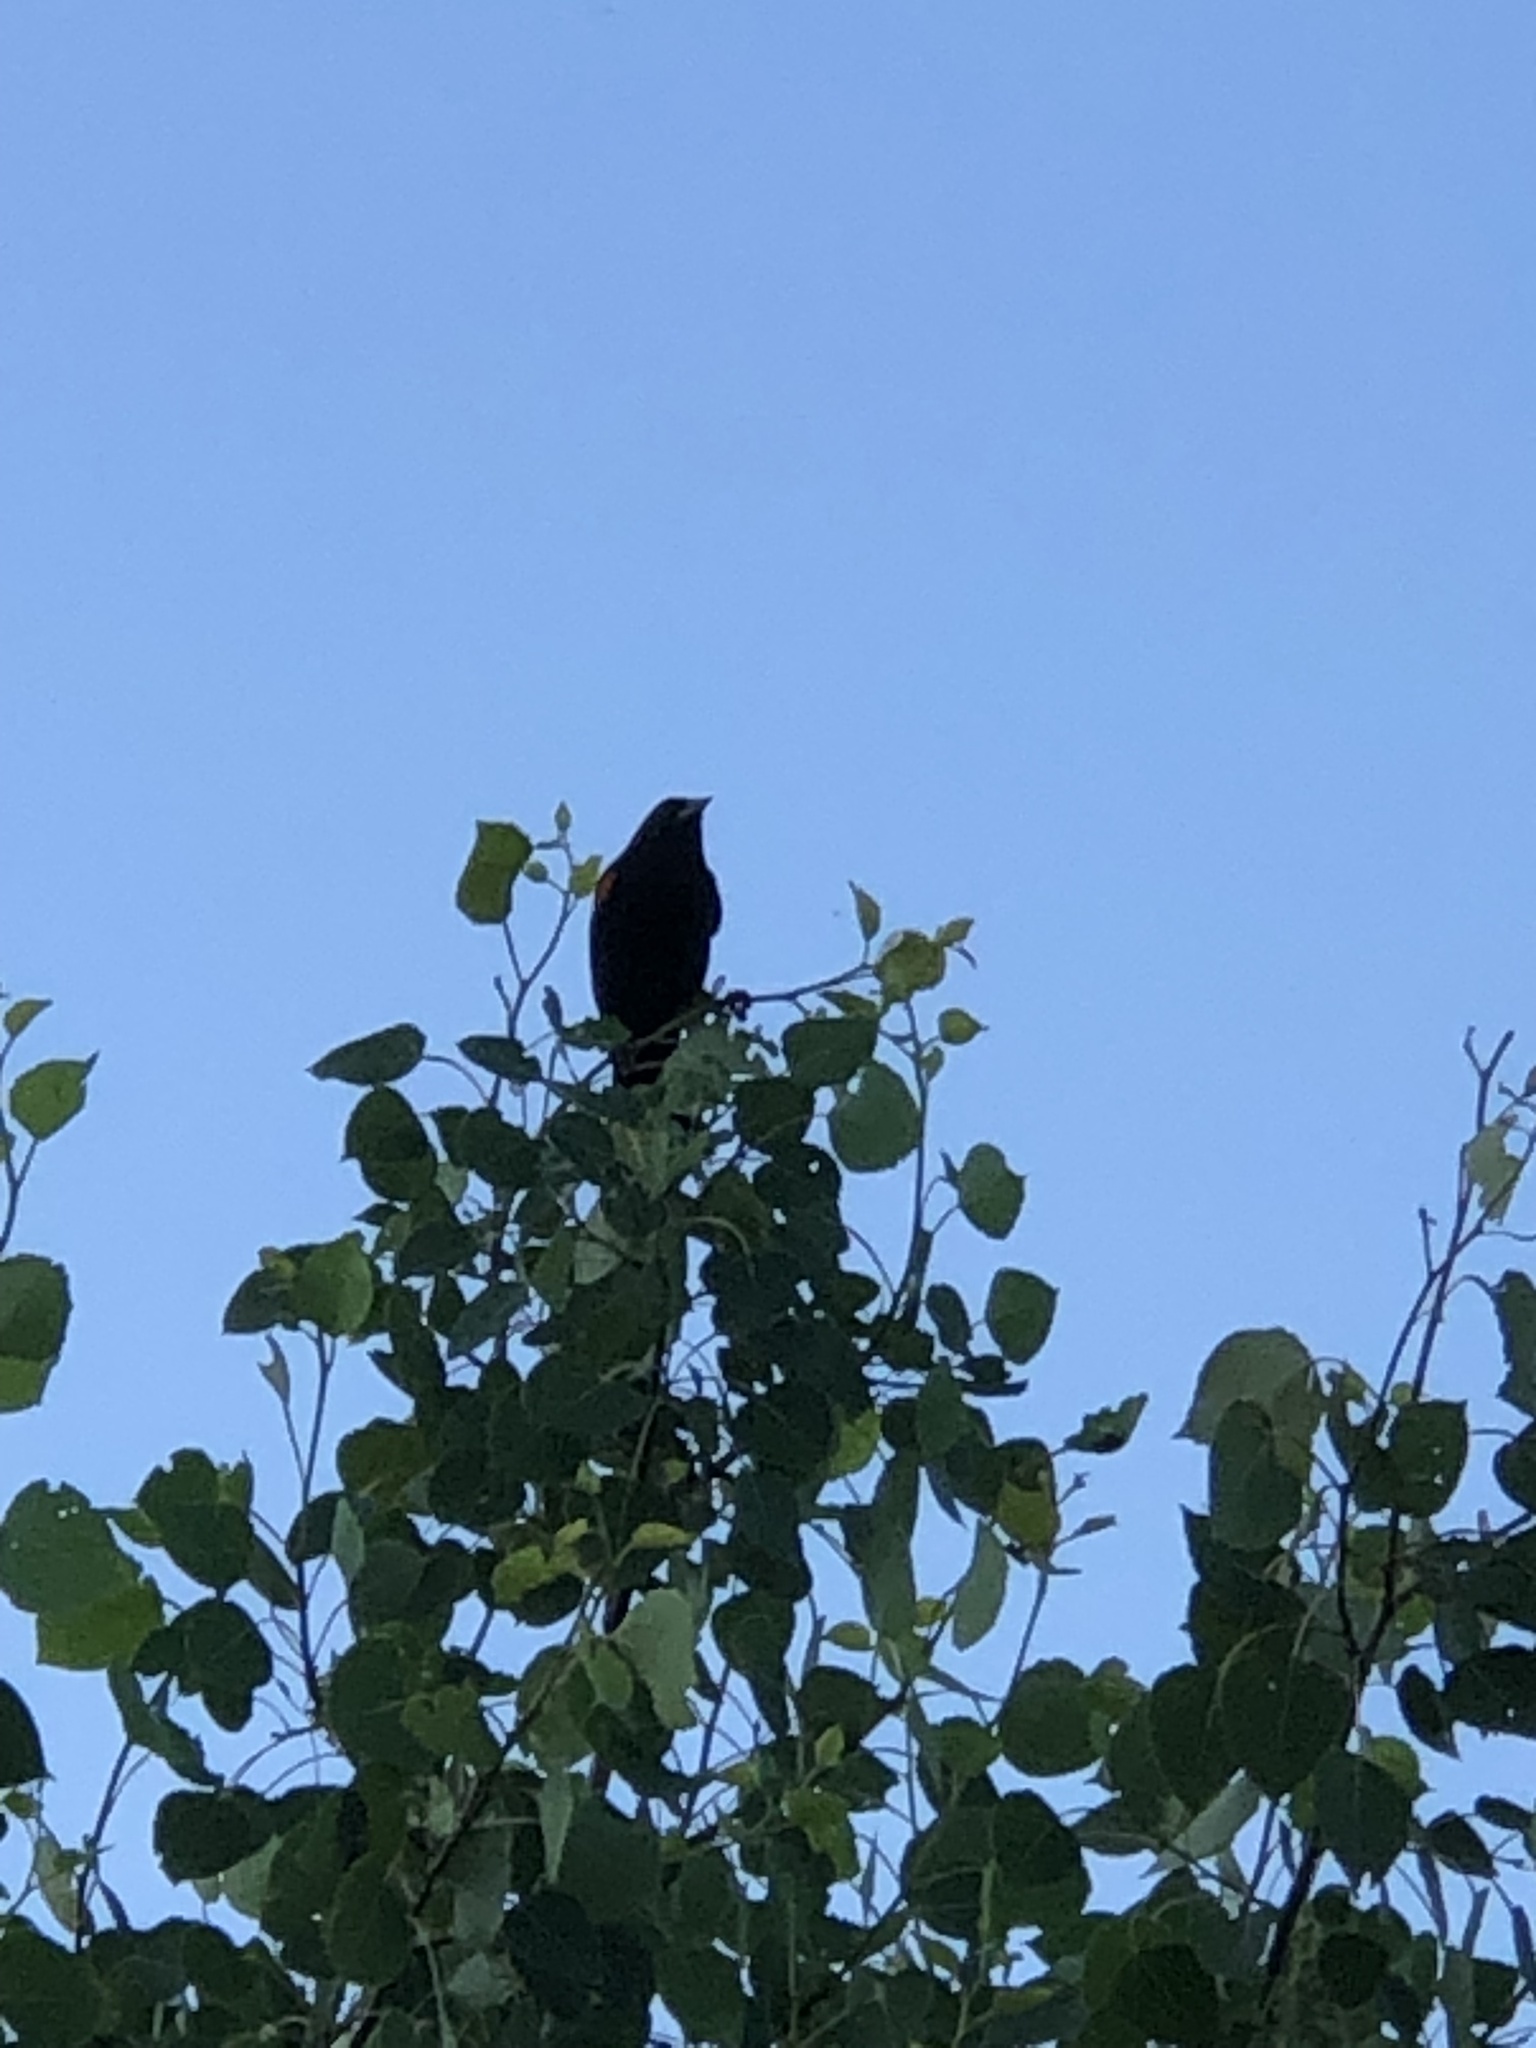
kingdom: Animalia
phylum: Chordata
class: Aves
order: Passeriformes
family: Icteridae
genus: Agelaius
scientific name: Agelaius phoeniceus
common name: Red-winged blackbird
